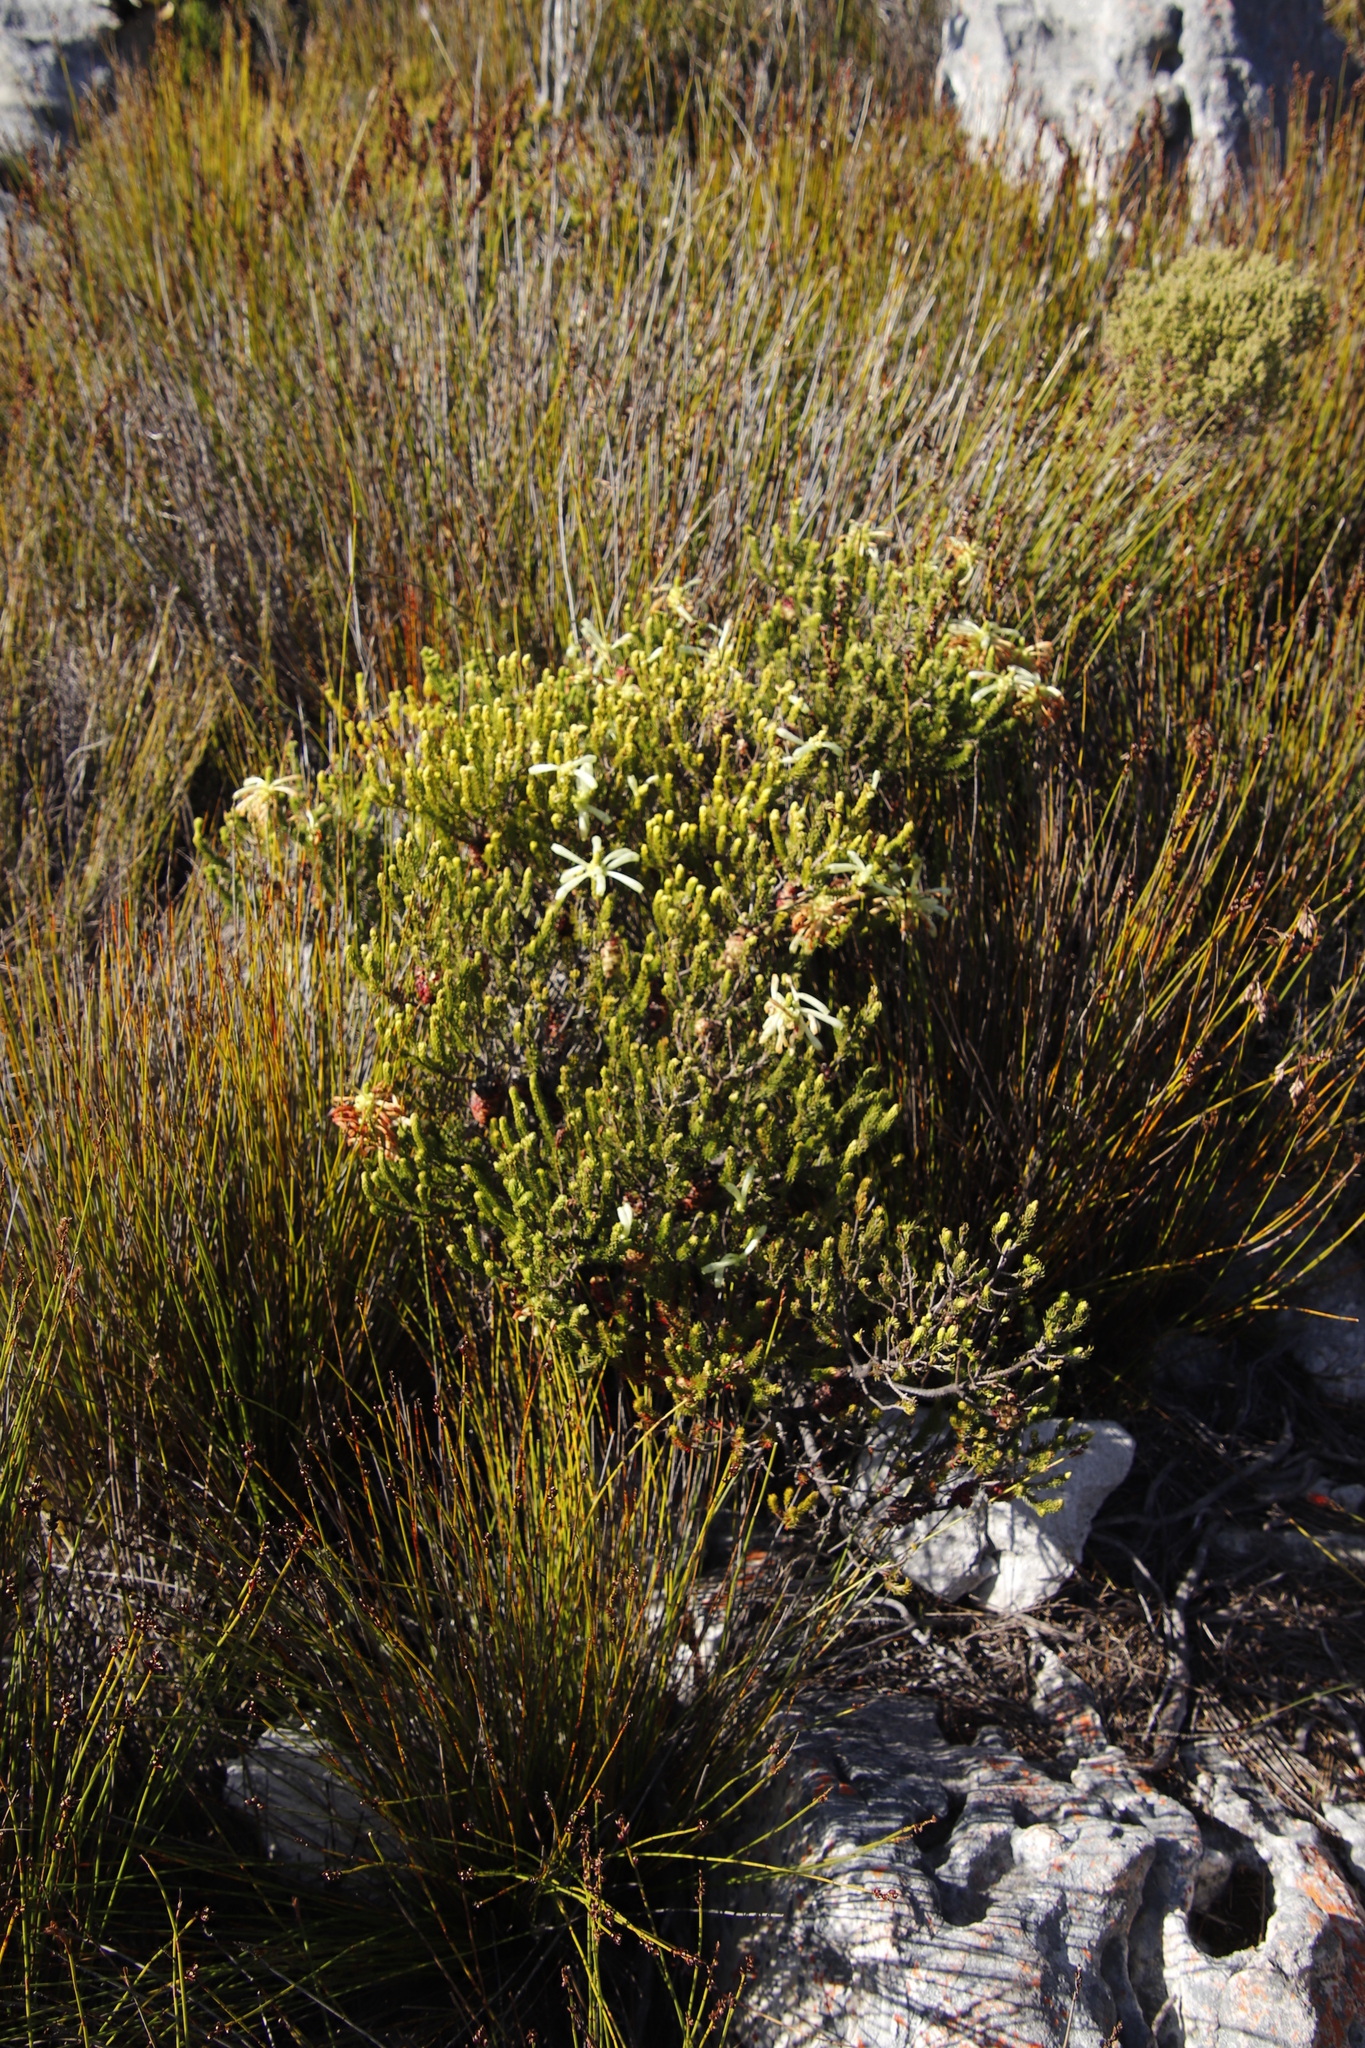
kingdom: Plantae
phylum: Tracheophyta
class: Magnoliopsida
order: Ericales
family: Ericaceae
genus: Erica
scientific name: Erica sessiliflora
